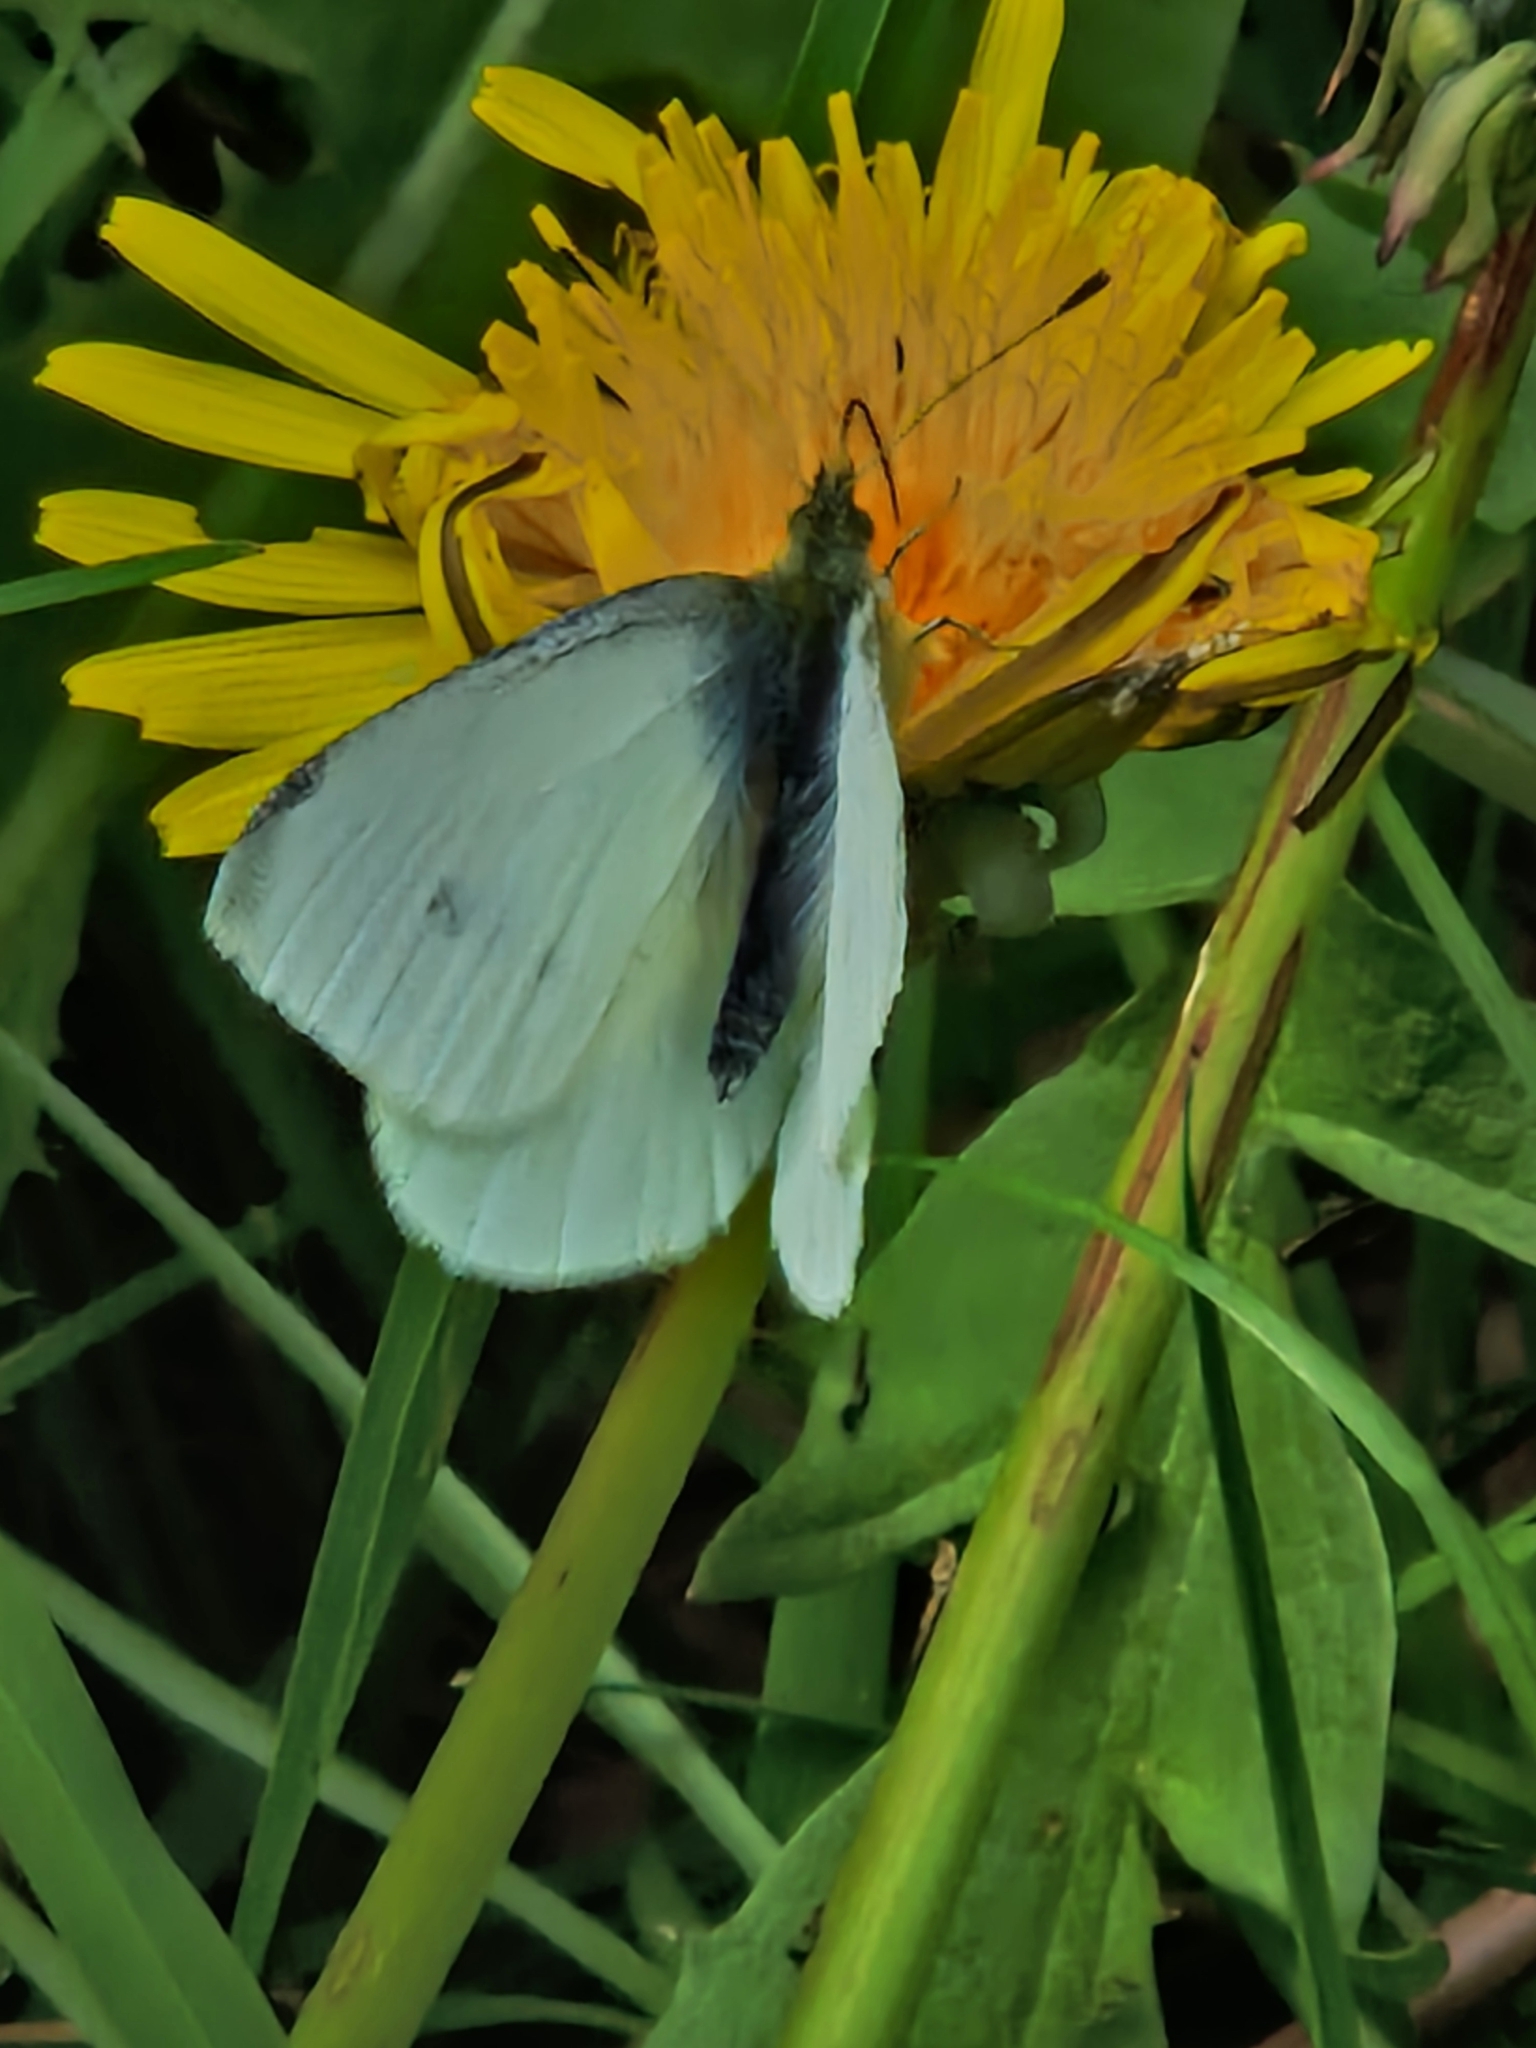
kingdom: Animalia
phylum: Arthropoda
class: Insecta
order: Lepidoptera
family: Pieridae
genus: Pieris
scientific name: Pieris rapae
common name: Small white
